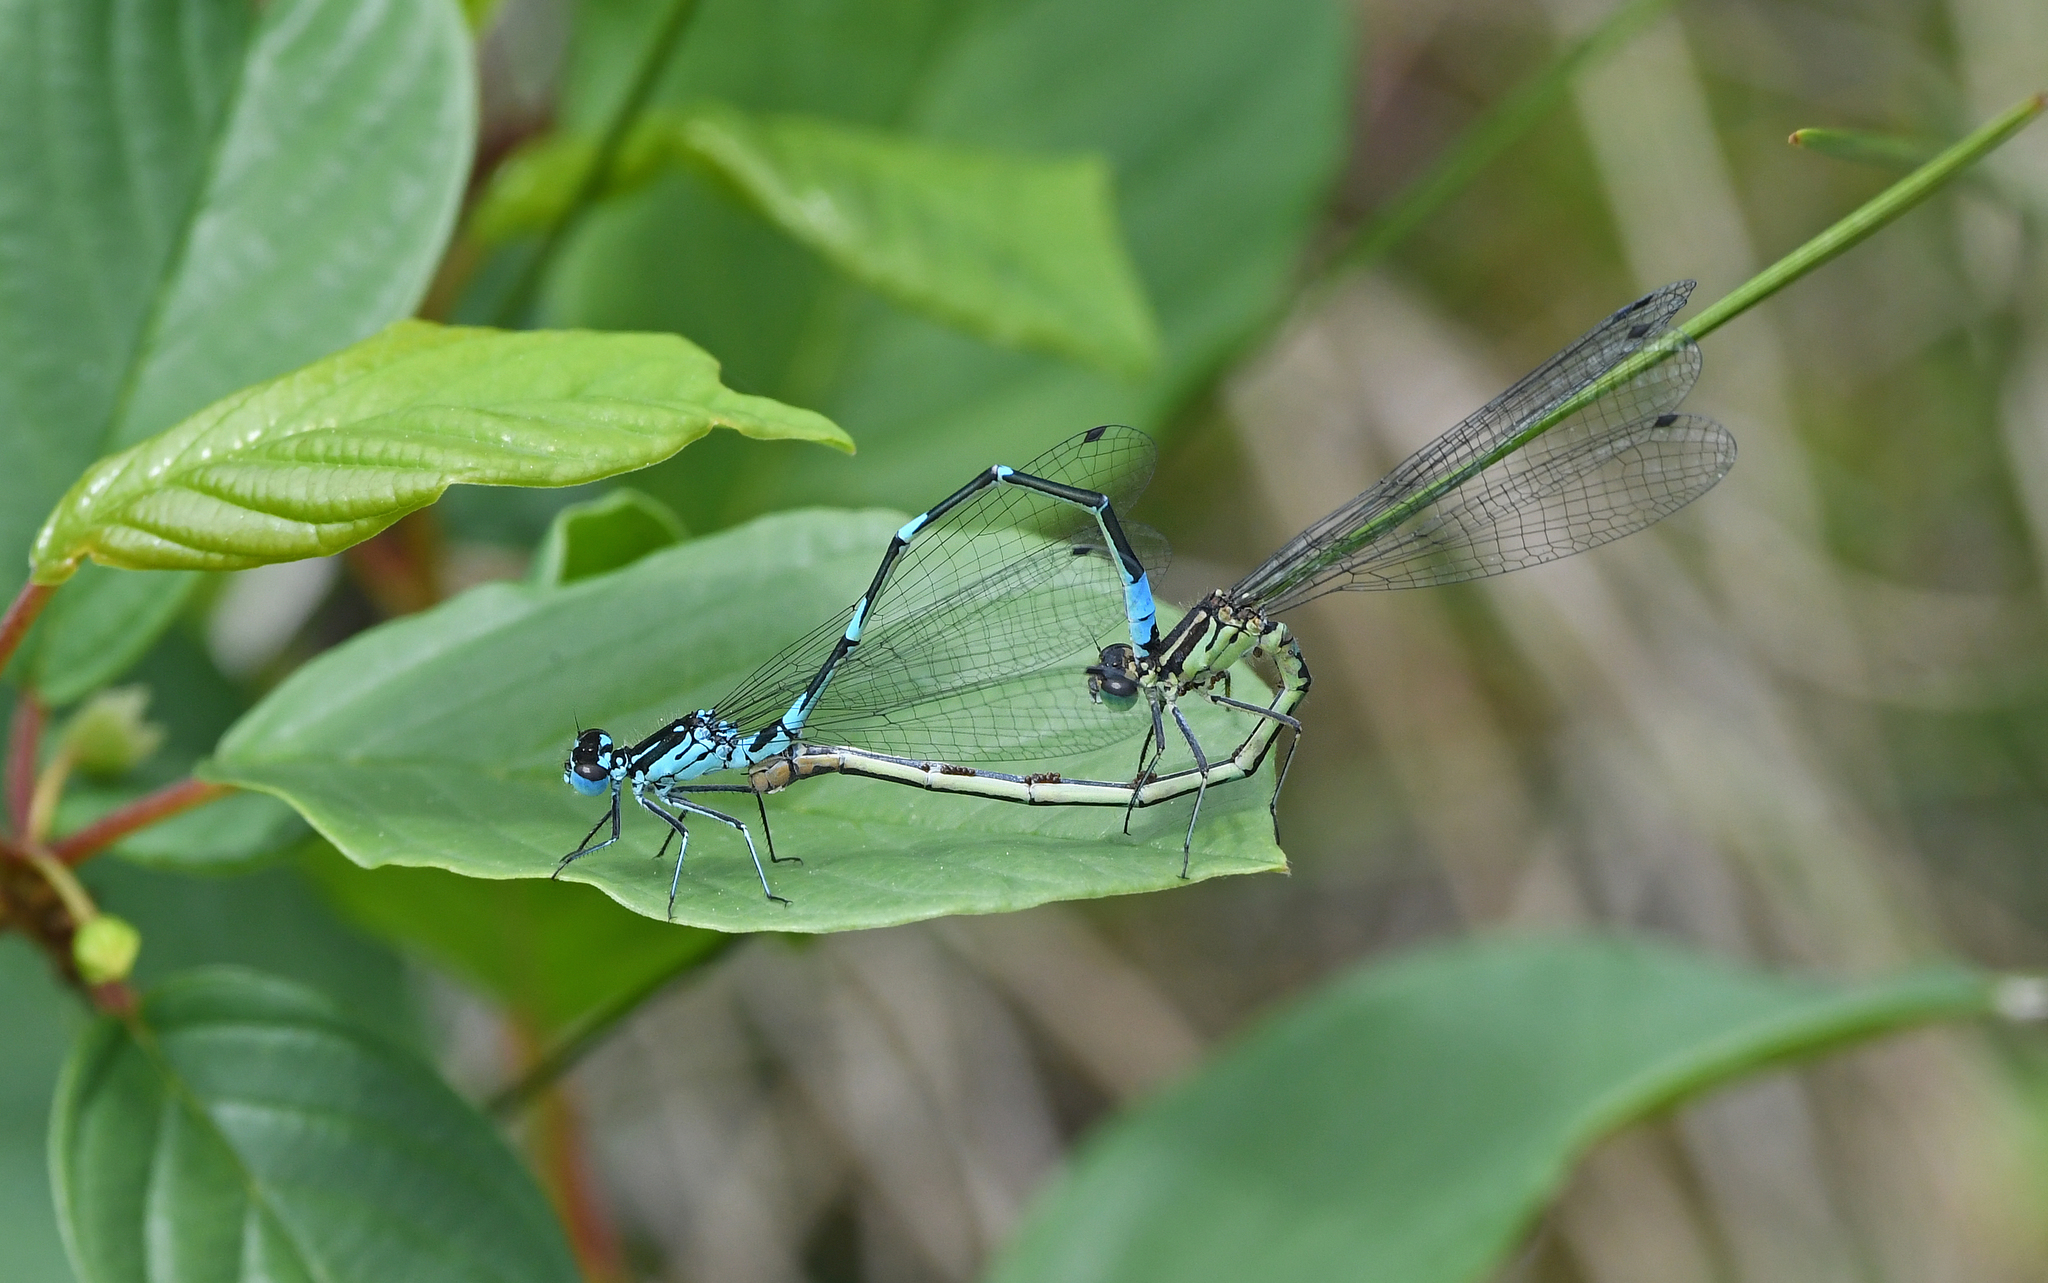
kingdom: Animalia
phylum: Arthropoda
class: Insecta
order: Odonata
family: Coenagrionidae
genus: Coenagrion
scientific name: Coenagrion pulchellum
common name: Variable bluet
